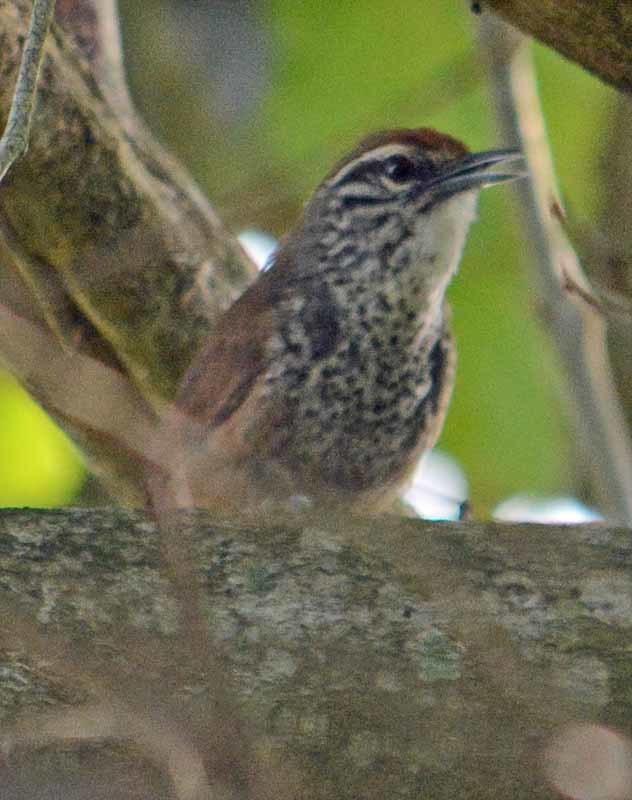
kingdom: Animalia
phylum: Chordata
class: Aves
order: Passeriformes
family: Troglodytidae
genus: Pheugopedius
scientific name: Pheugopedius maculipectus
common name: Spot-breasted wren
